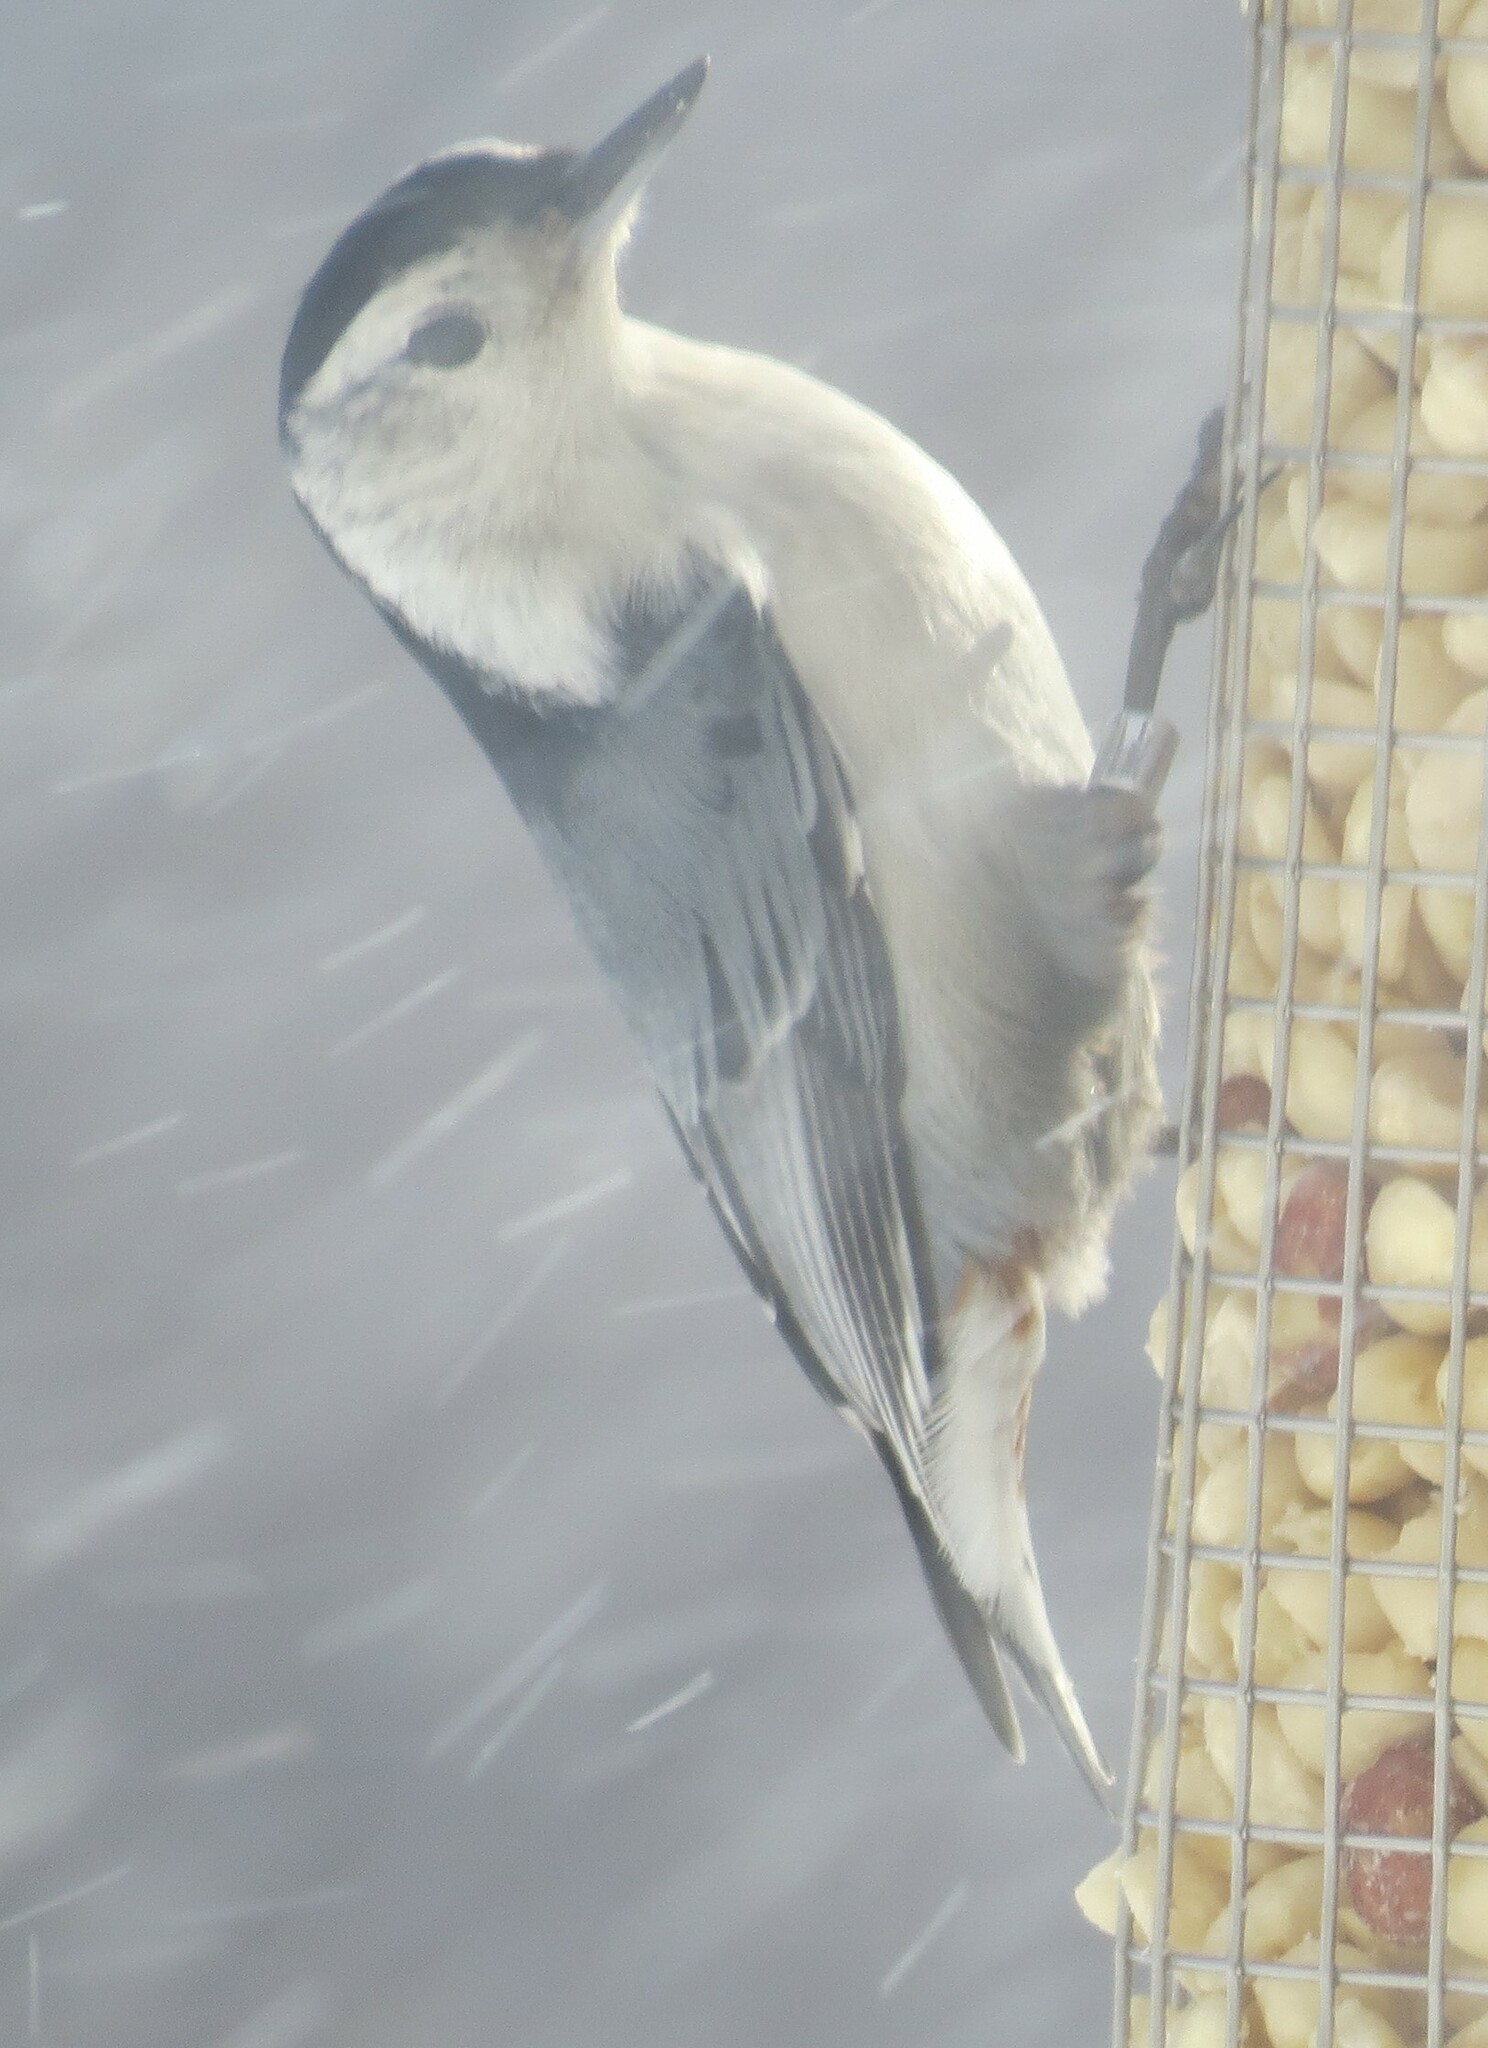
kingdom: Animalia
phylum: Chordata
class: Aves
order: Passeriformes
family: Sittidae
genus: Sitta
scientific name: Sitta carolinensis
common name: White-breasted nuthatch
